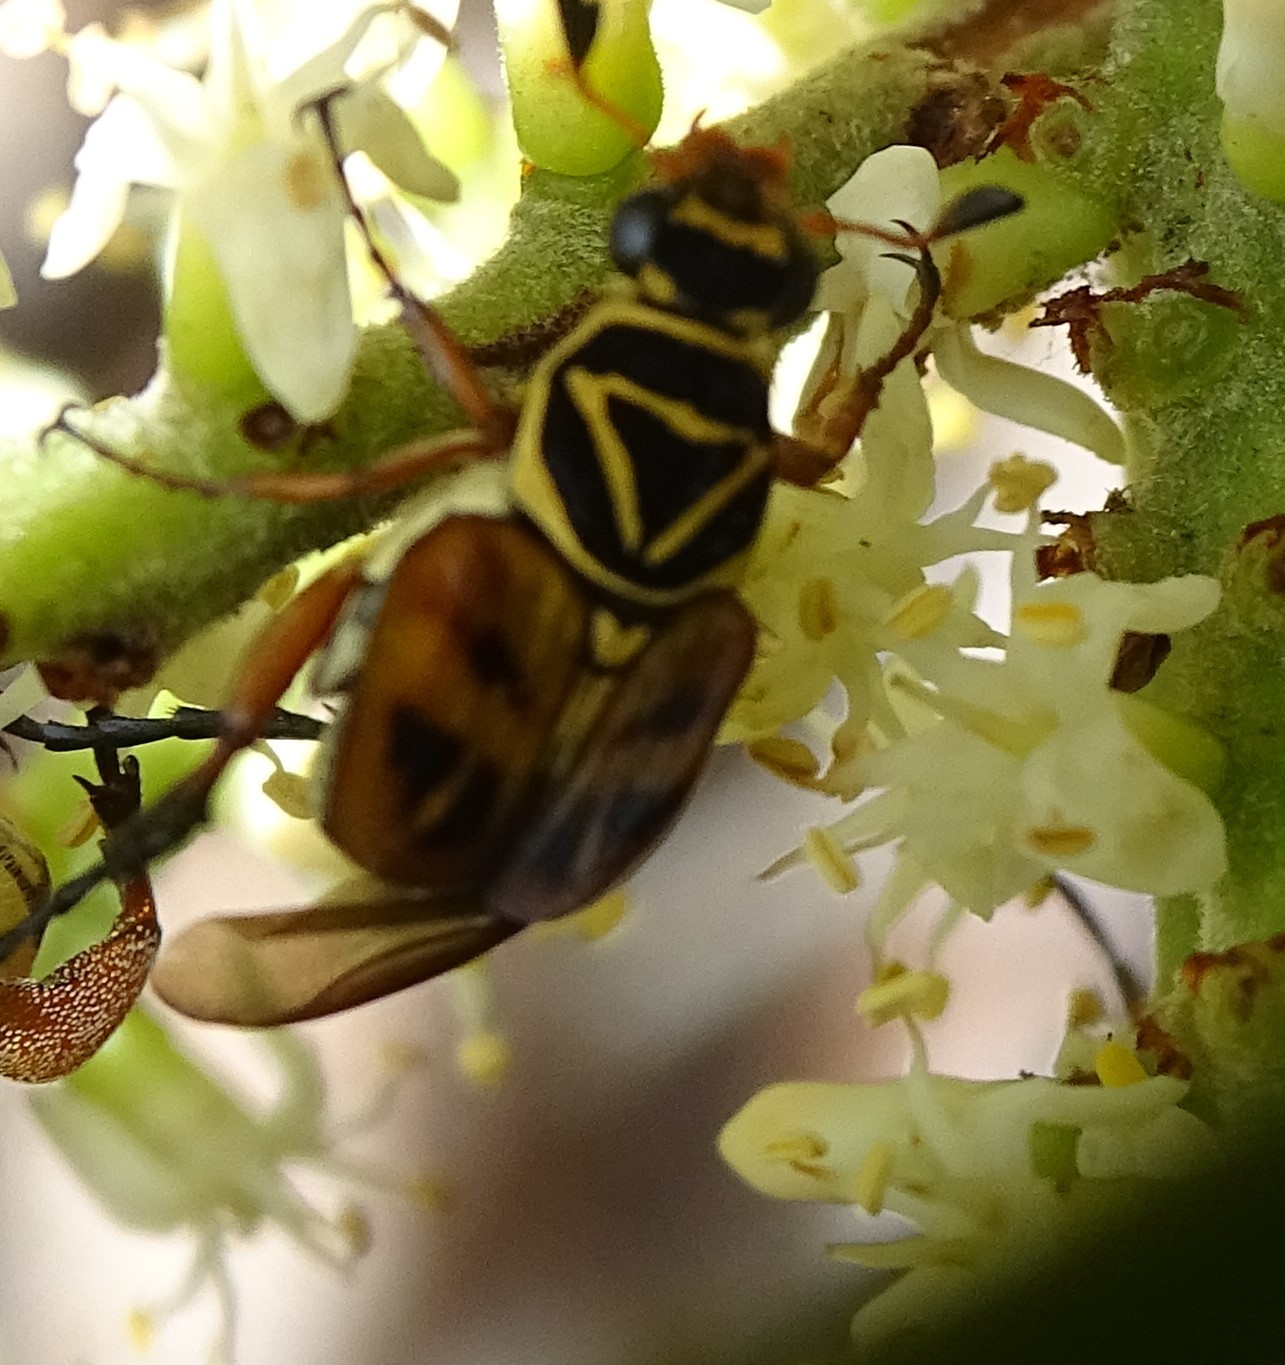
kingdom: Animalia
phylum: Arthropoda
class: Insecta
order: Coleoptera
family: Scarabaeidae
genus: Trigonopeltastes
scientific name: Trigonopeltastes delta
